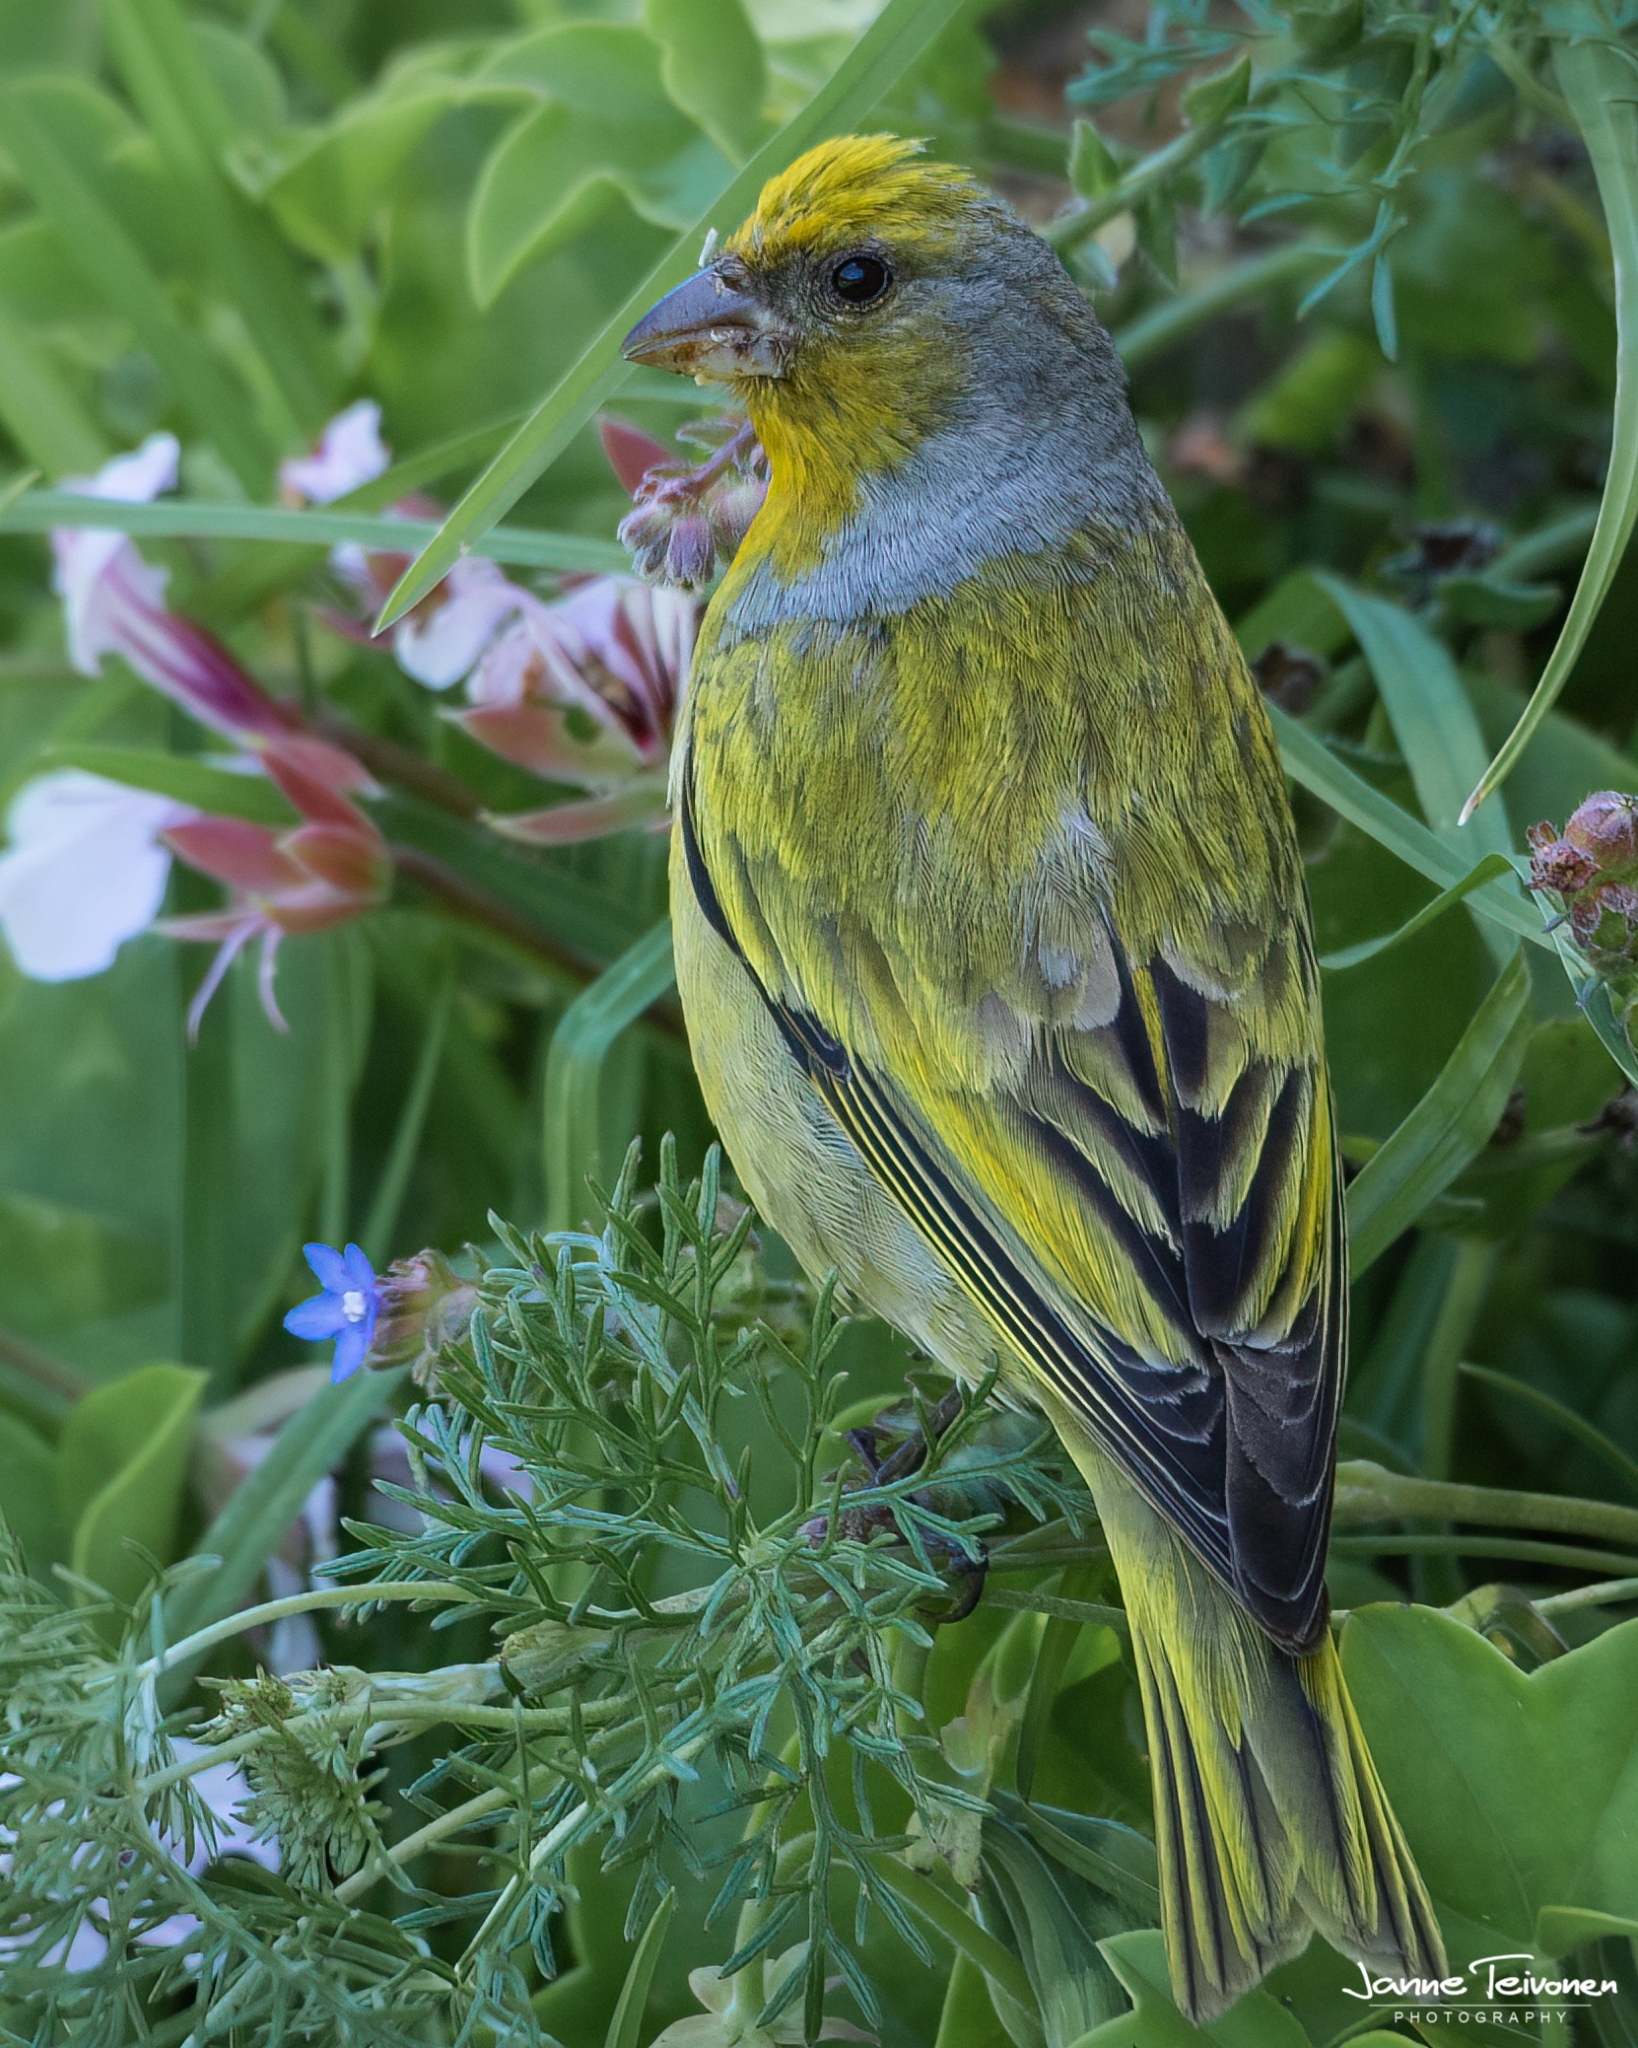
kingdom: Animalia
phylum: Chordata
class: Aves
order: Passeriformes
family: Fringillidae
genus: Serinus
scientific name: Serinus canicollis
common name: Cape canary
